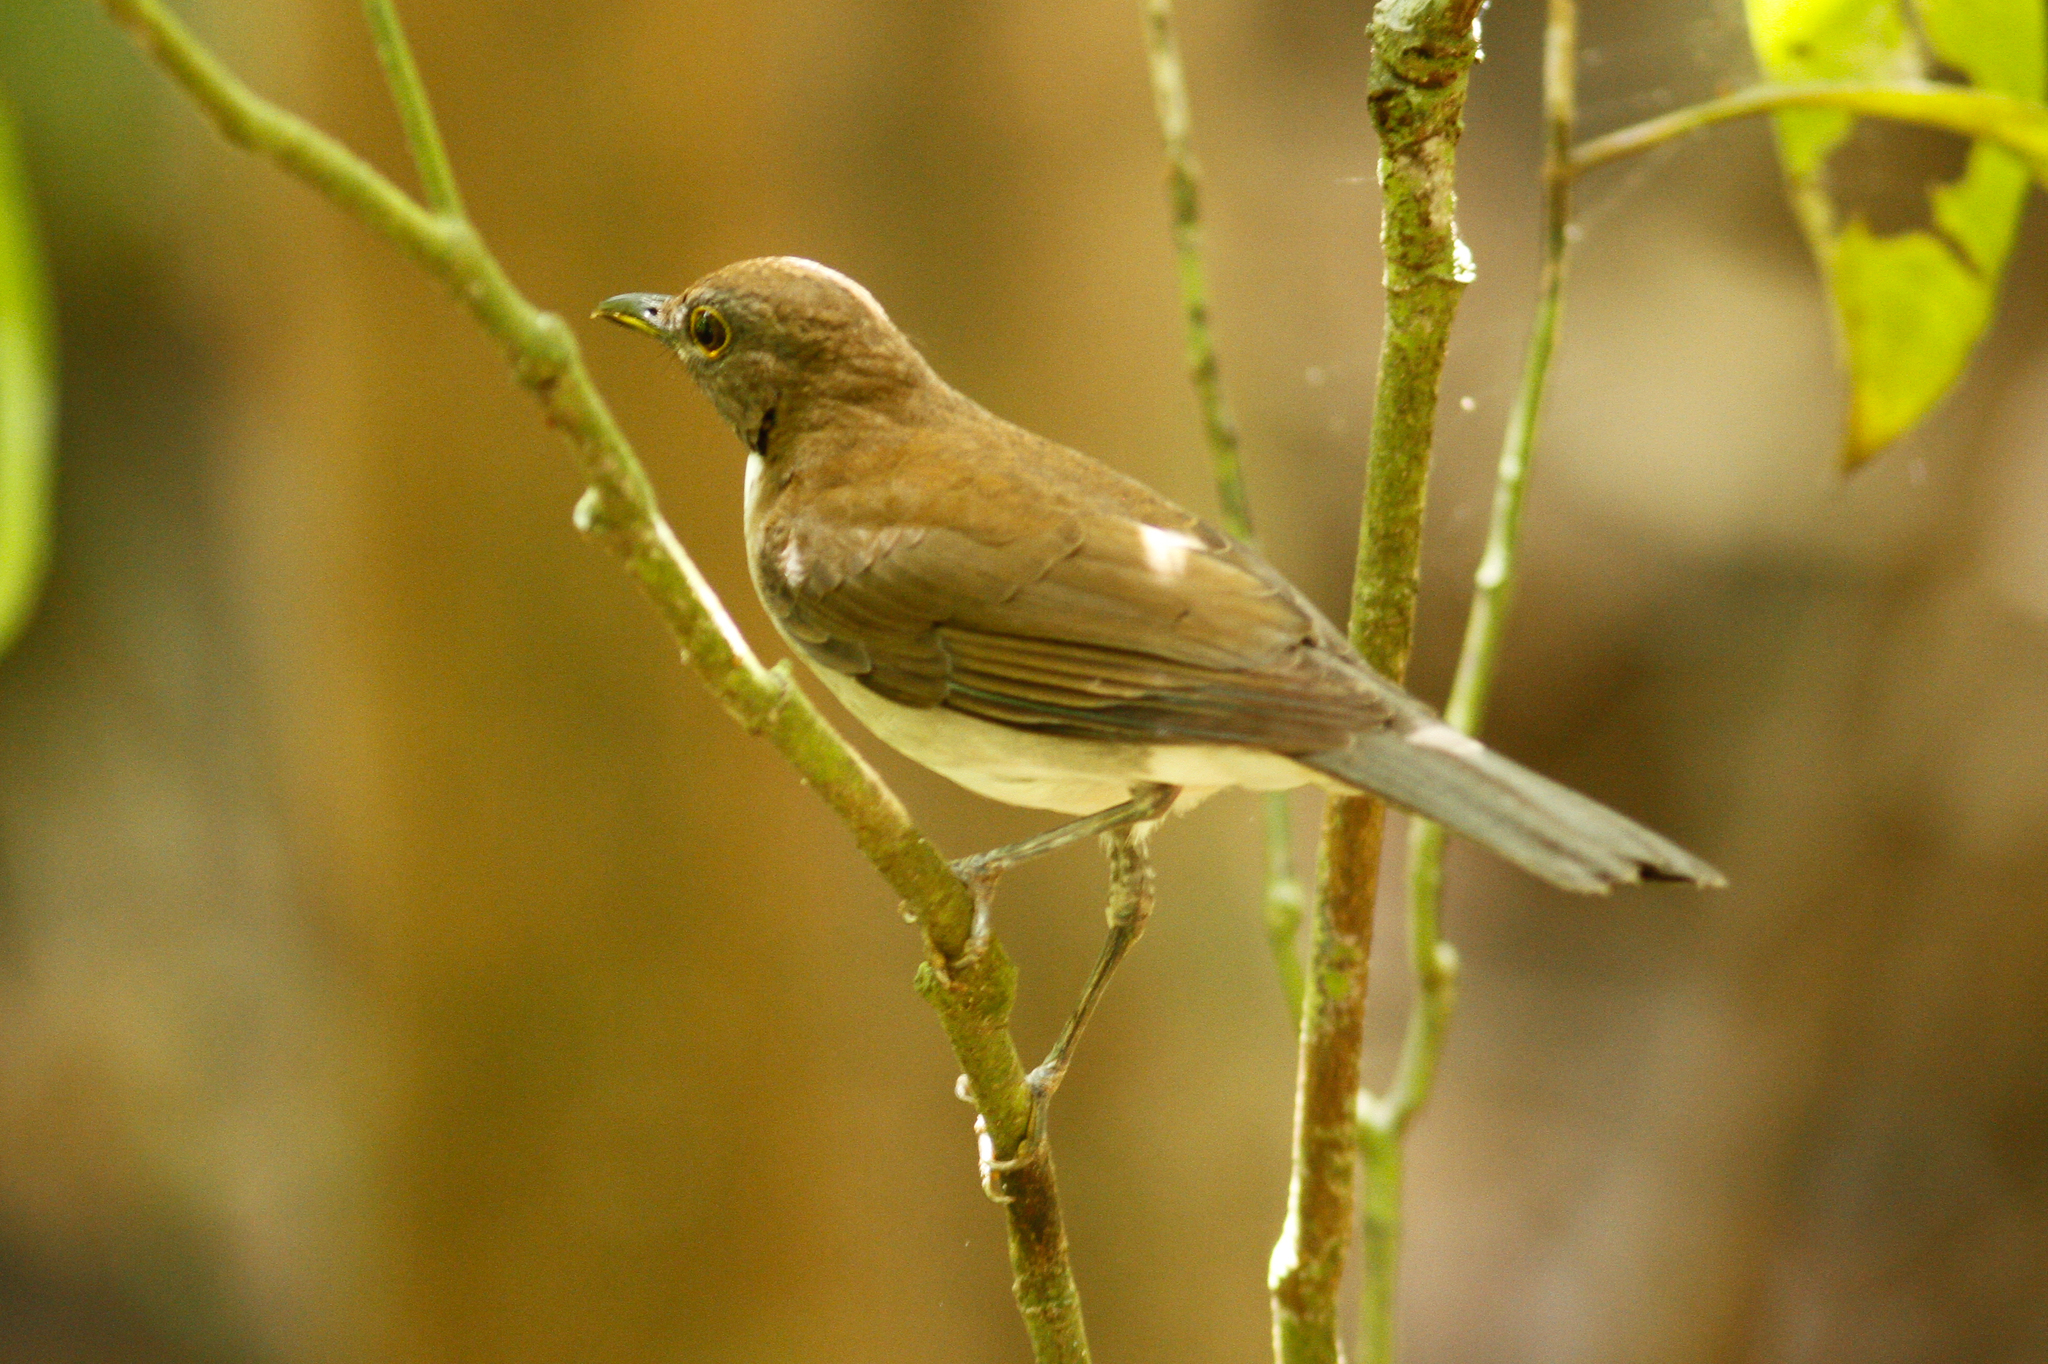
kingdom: Animalia
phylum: Chordata
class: Aves
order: Passeriformes
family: Turdidae
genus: Turdus
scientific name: Turdus albicollis
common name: White-necked thrush
